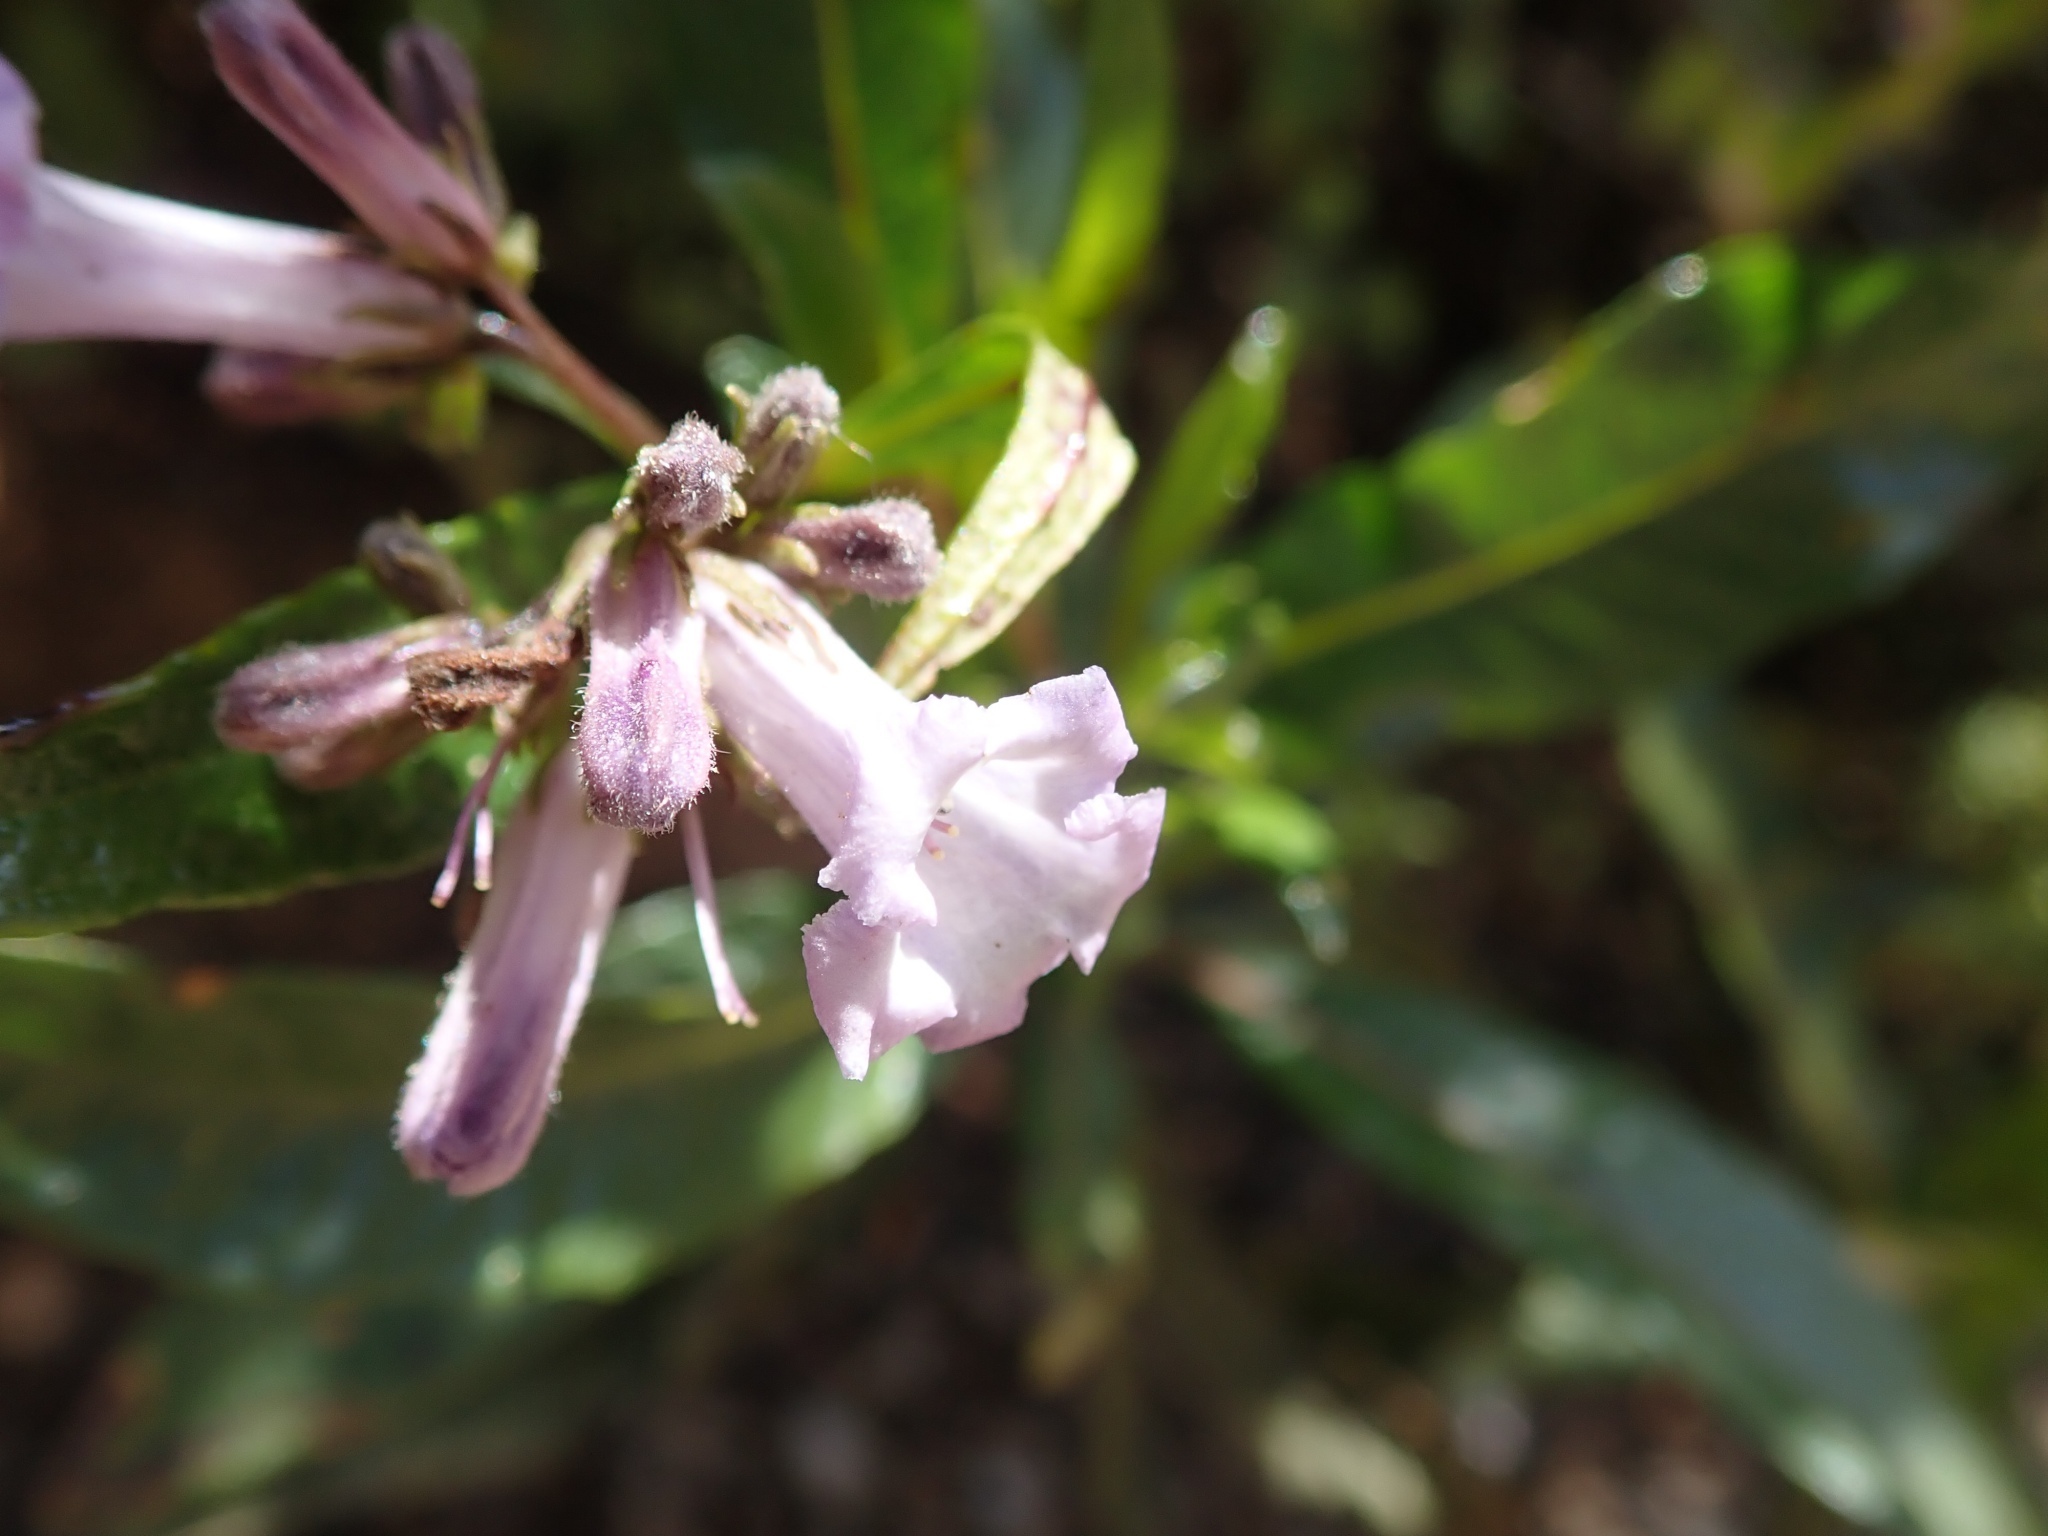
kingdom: Plantae
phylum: Tracheophyta
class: Magnoliopsida
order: Boraginales
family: Namaceae
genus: Eriodictyon
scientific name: Eriodictyon californicum
